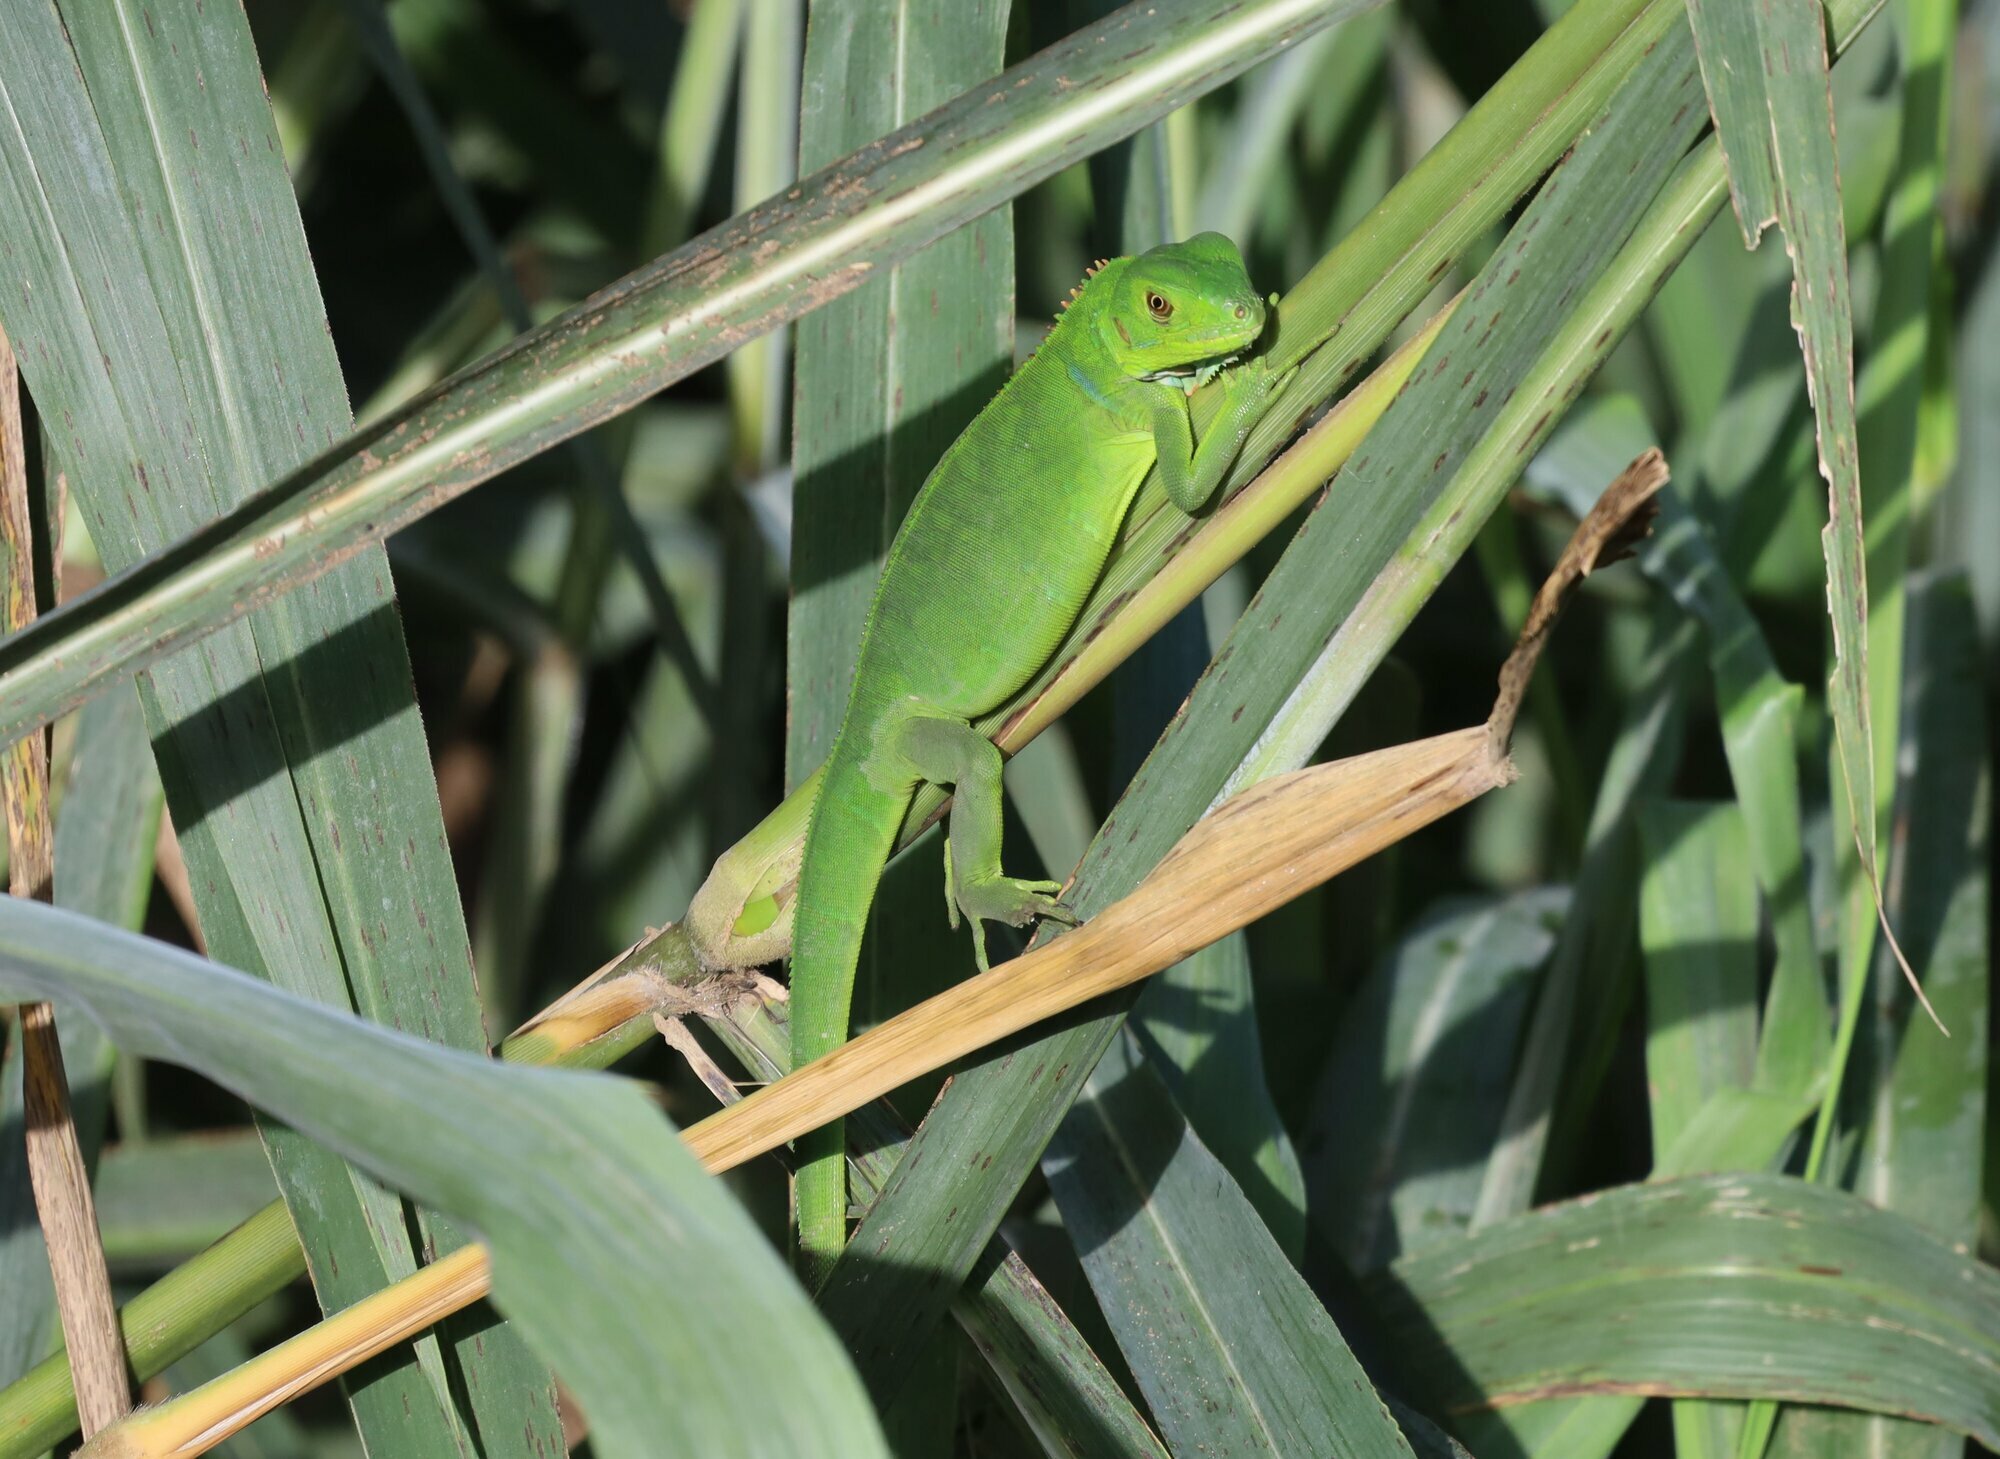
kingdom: Animalia
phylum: Chordata
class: Squamata
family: Iguanidae
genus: Iguana
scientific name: Iguana iguana
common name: Green iguana
